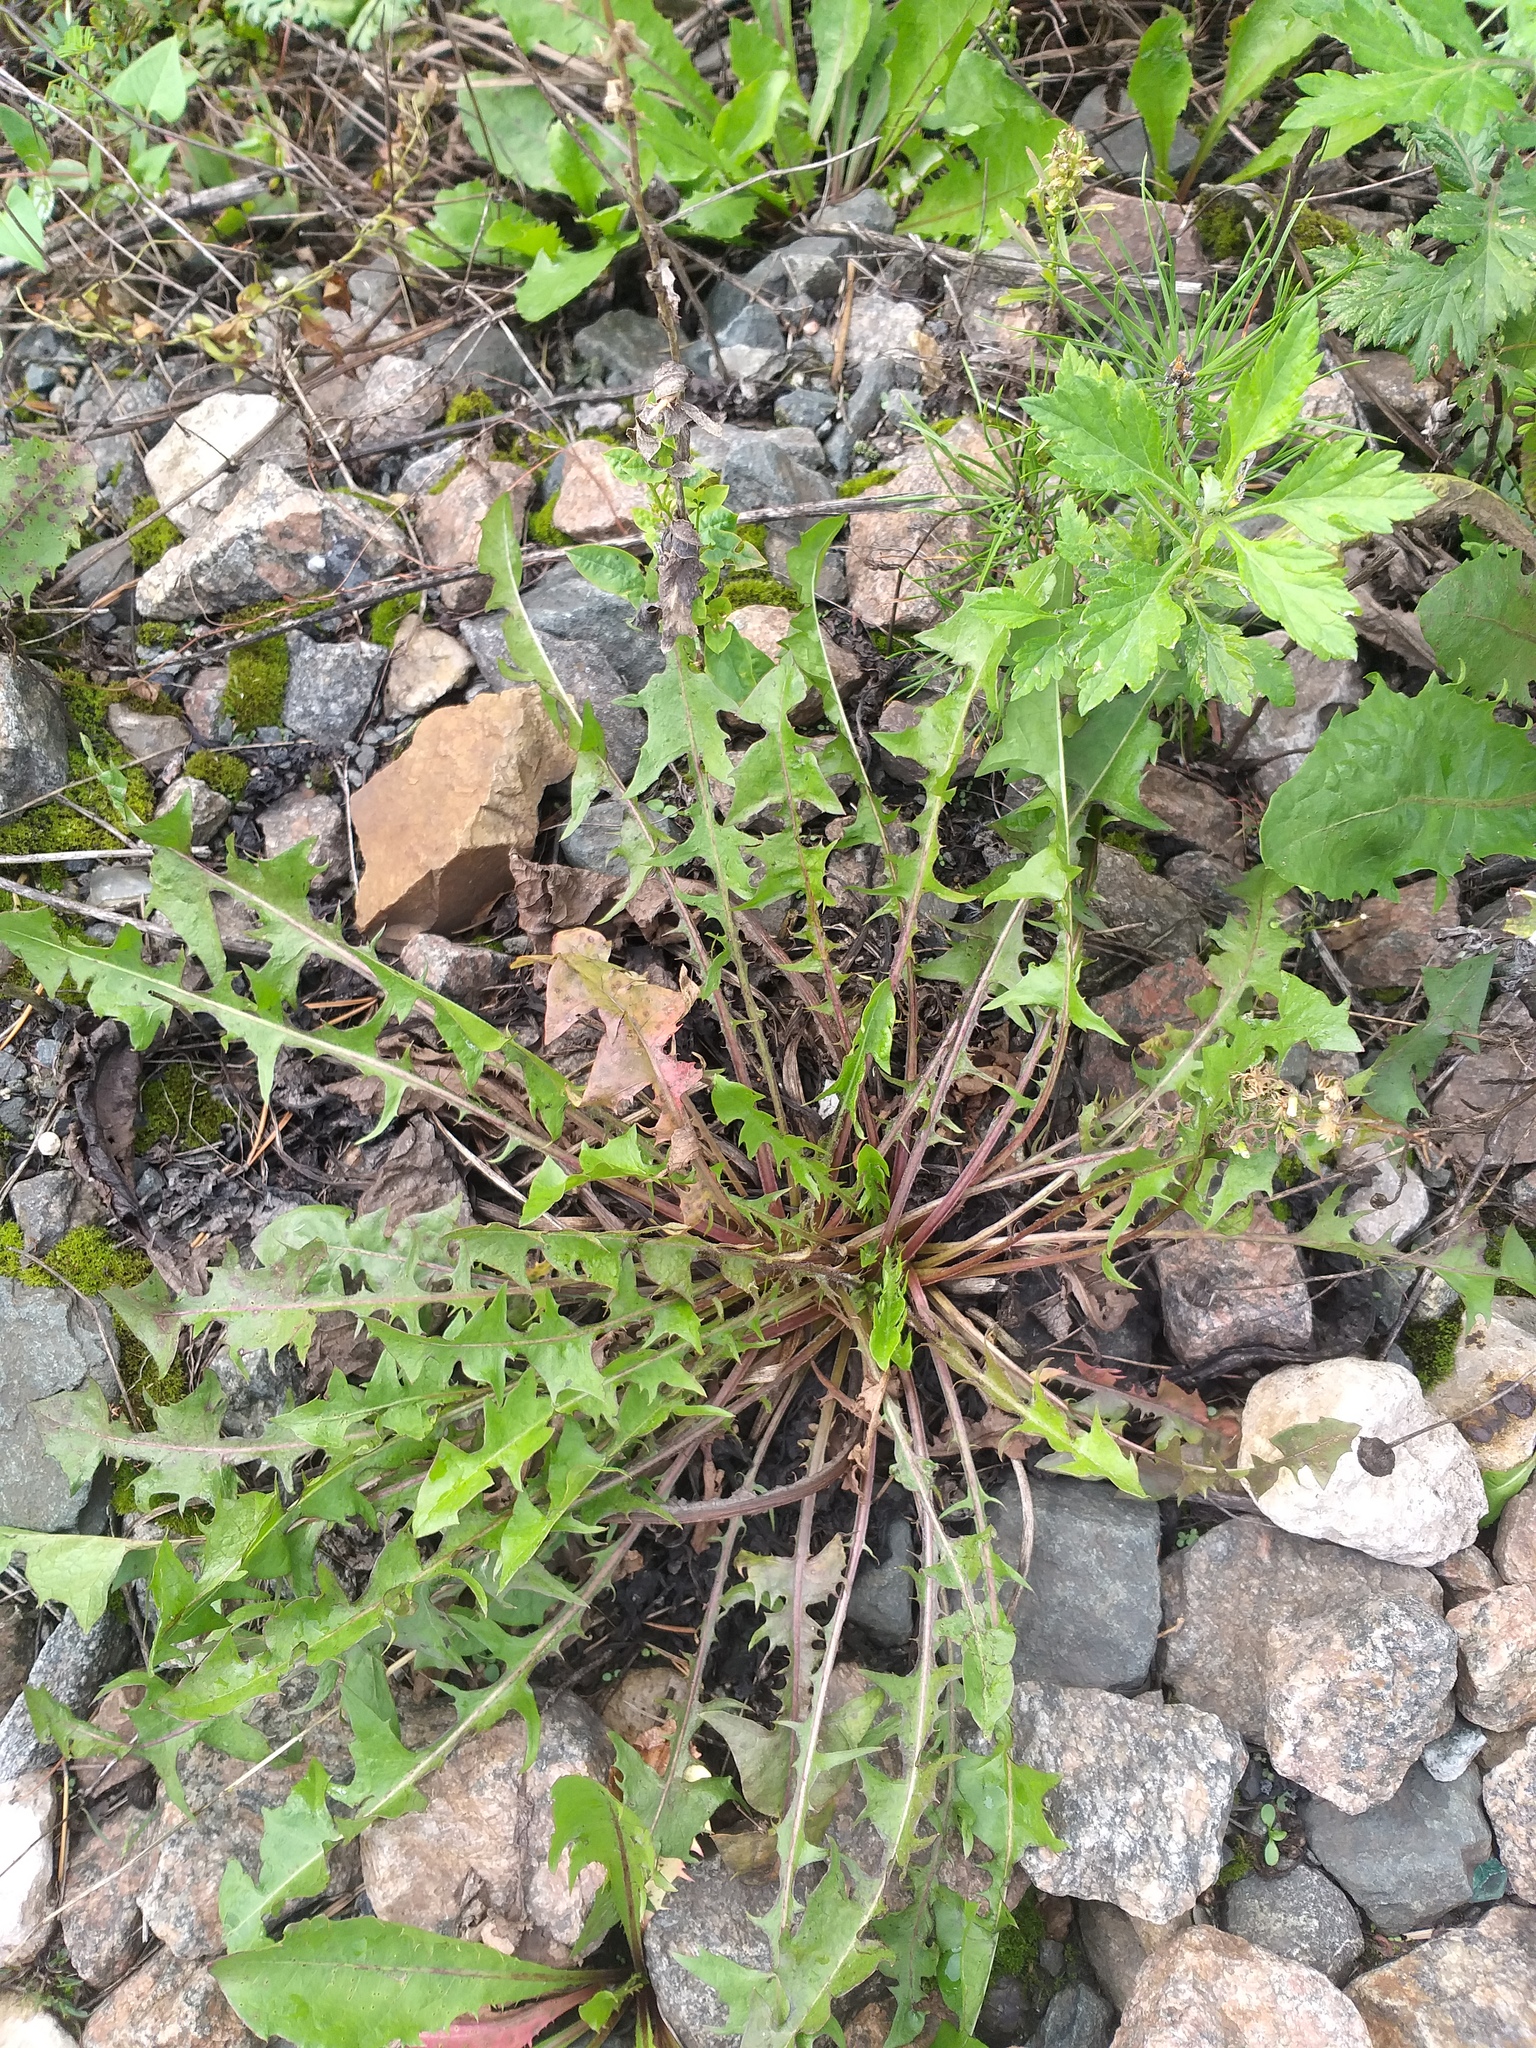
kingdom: Plantae
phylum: Tracheophyta
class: Magnoliopsida
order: Asterales
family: Asteraceae
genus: Taraxacum
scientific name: Taraxacum officinale
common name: Common dandelion
